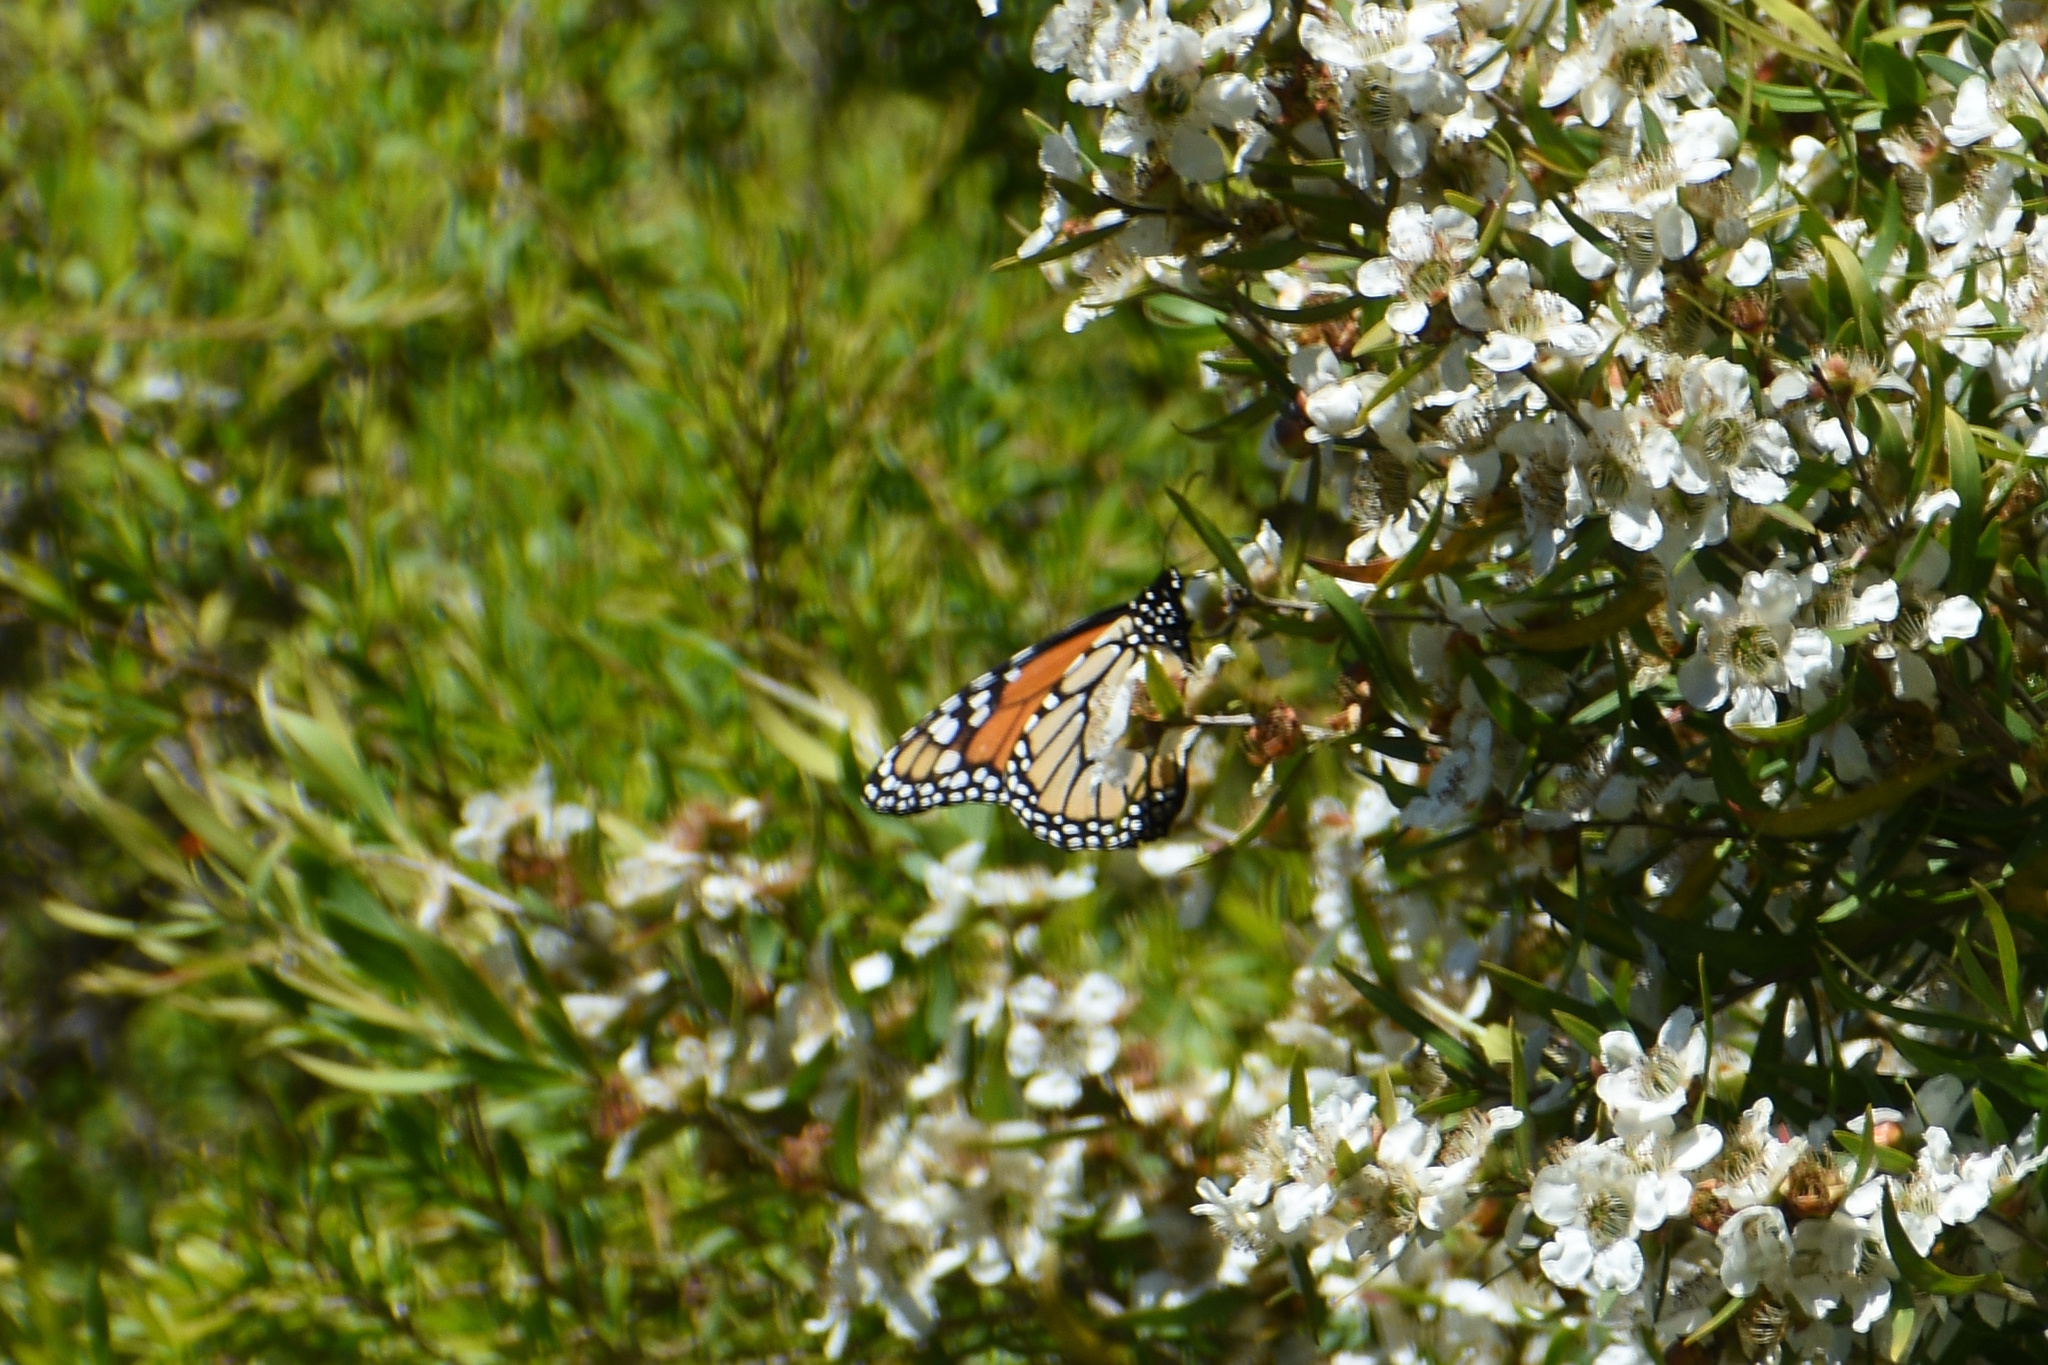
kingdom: Animalia
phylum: Arthropoda
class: Insecta
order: Lepidoptera
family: Nymphalidae
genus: Danaus
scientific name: Danaus plexippus
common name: Monarch
